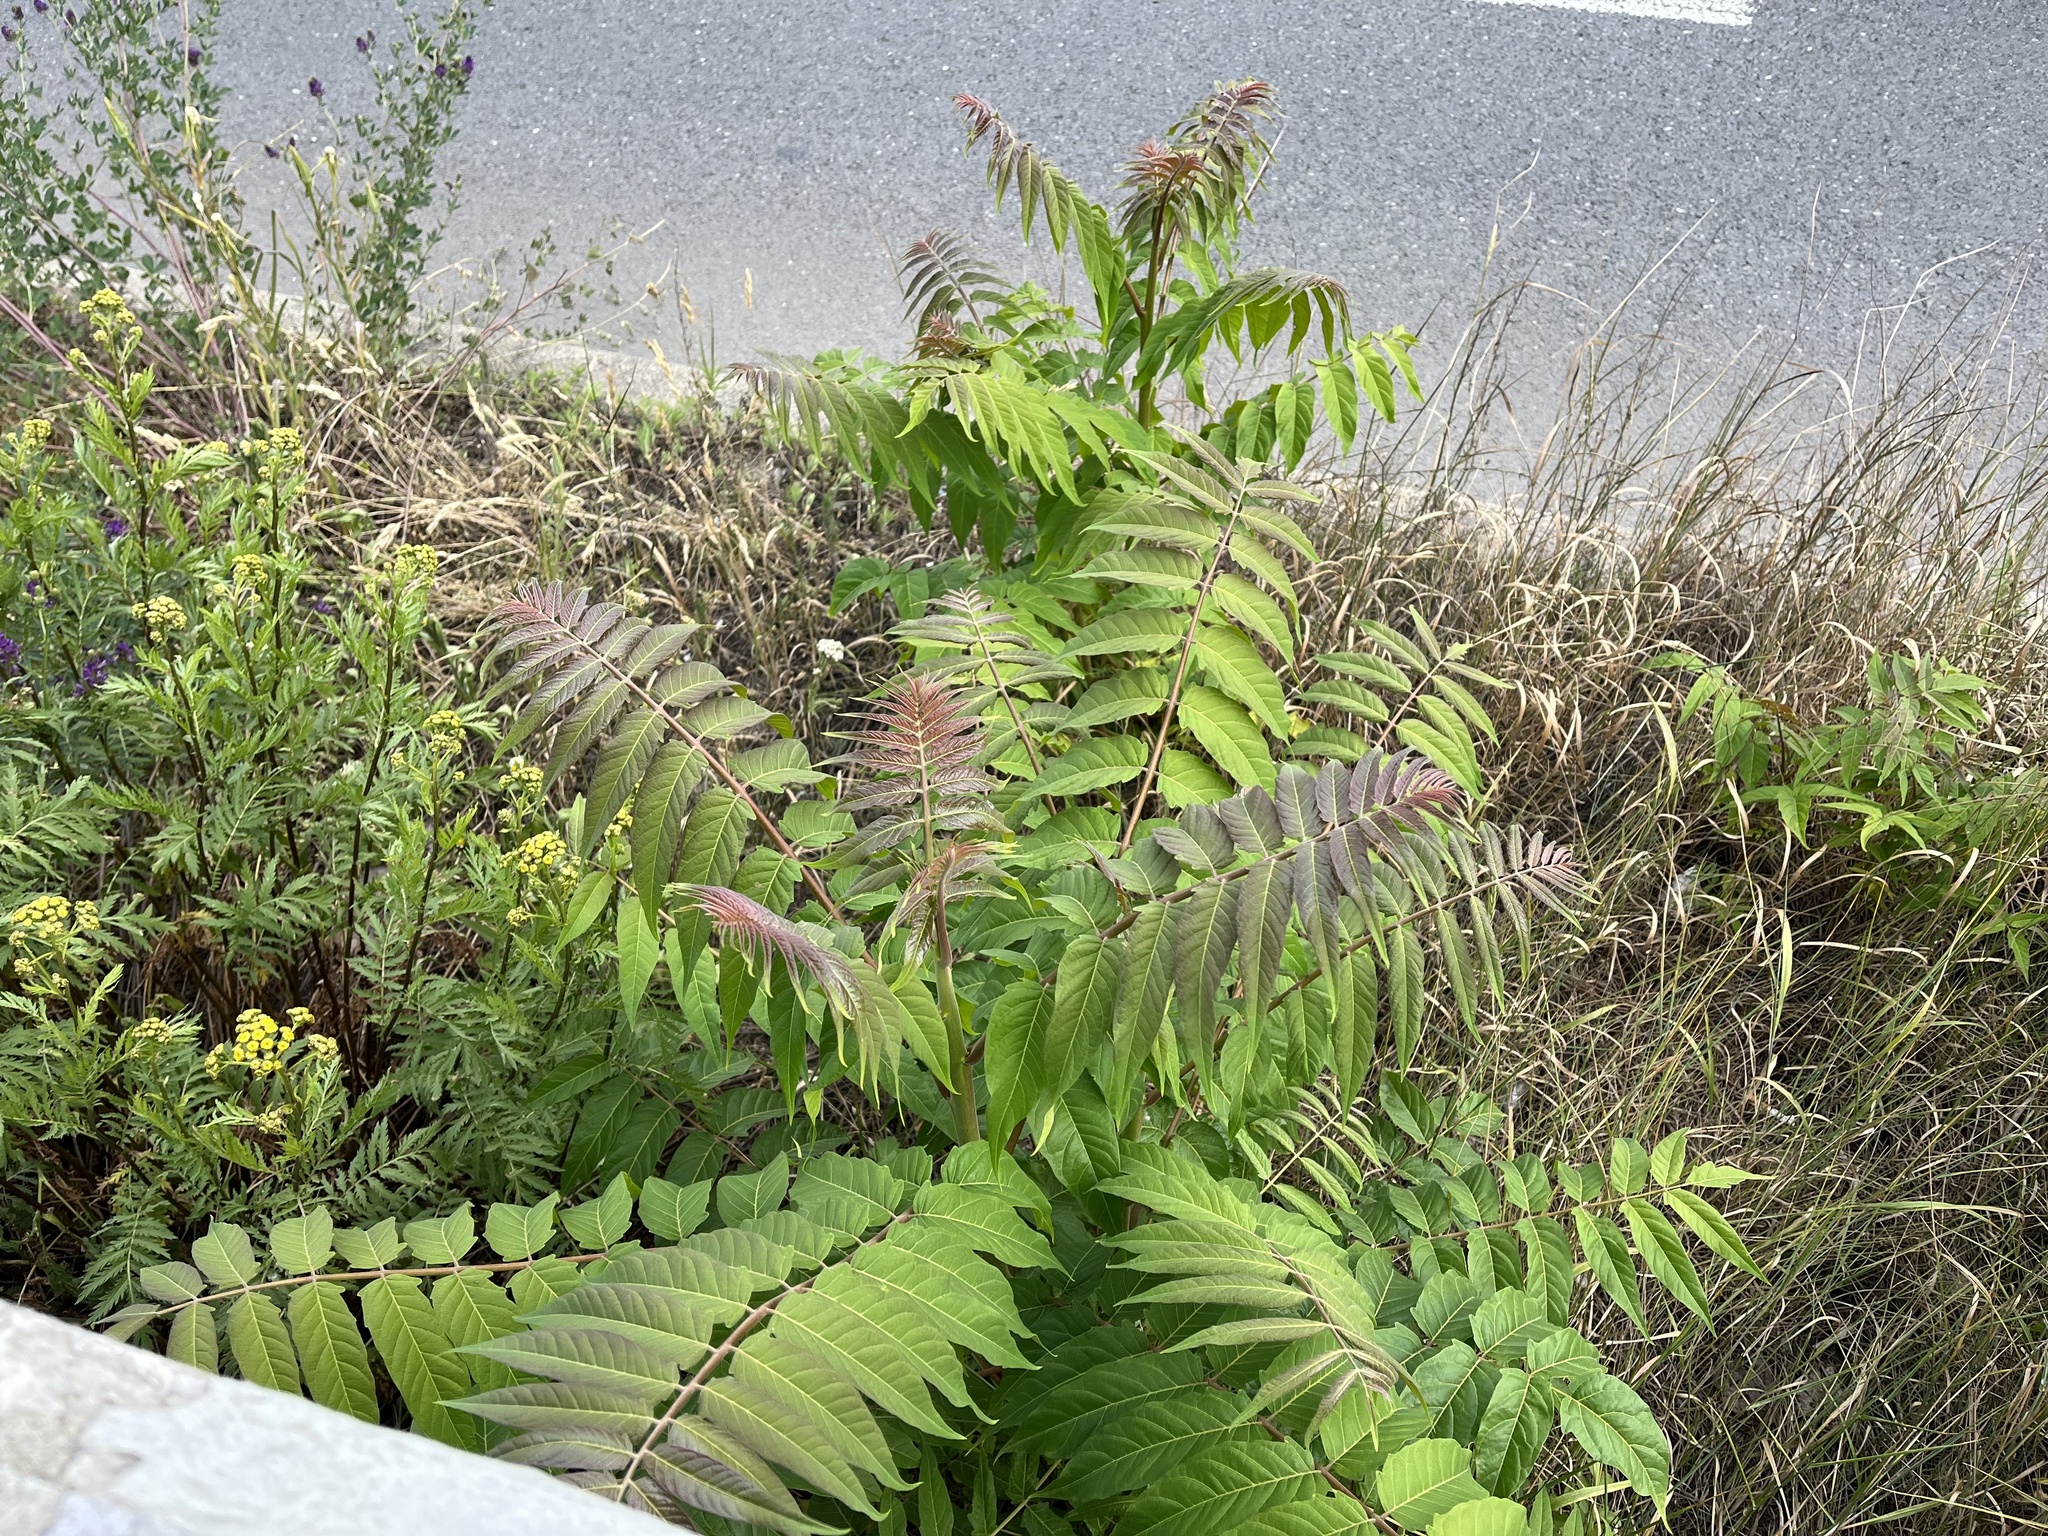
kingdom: Plantae
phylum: Tracheophyta
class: Magnoliopsida
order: Sapindales
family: Simaroubaceae
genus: Ailanthus
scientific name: Ailanthus altissima
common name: Tree-of-heaven
